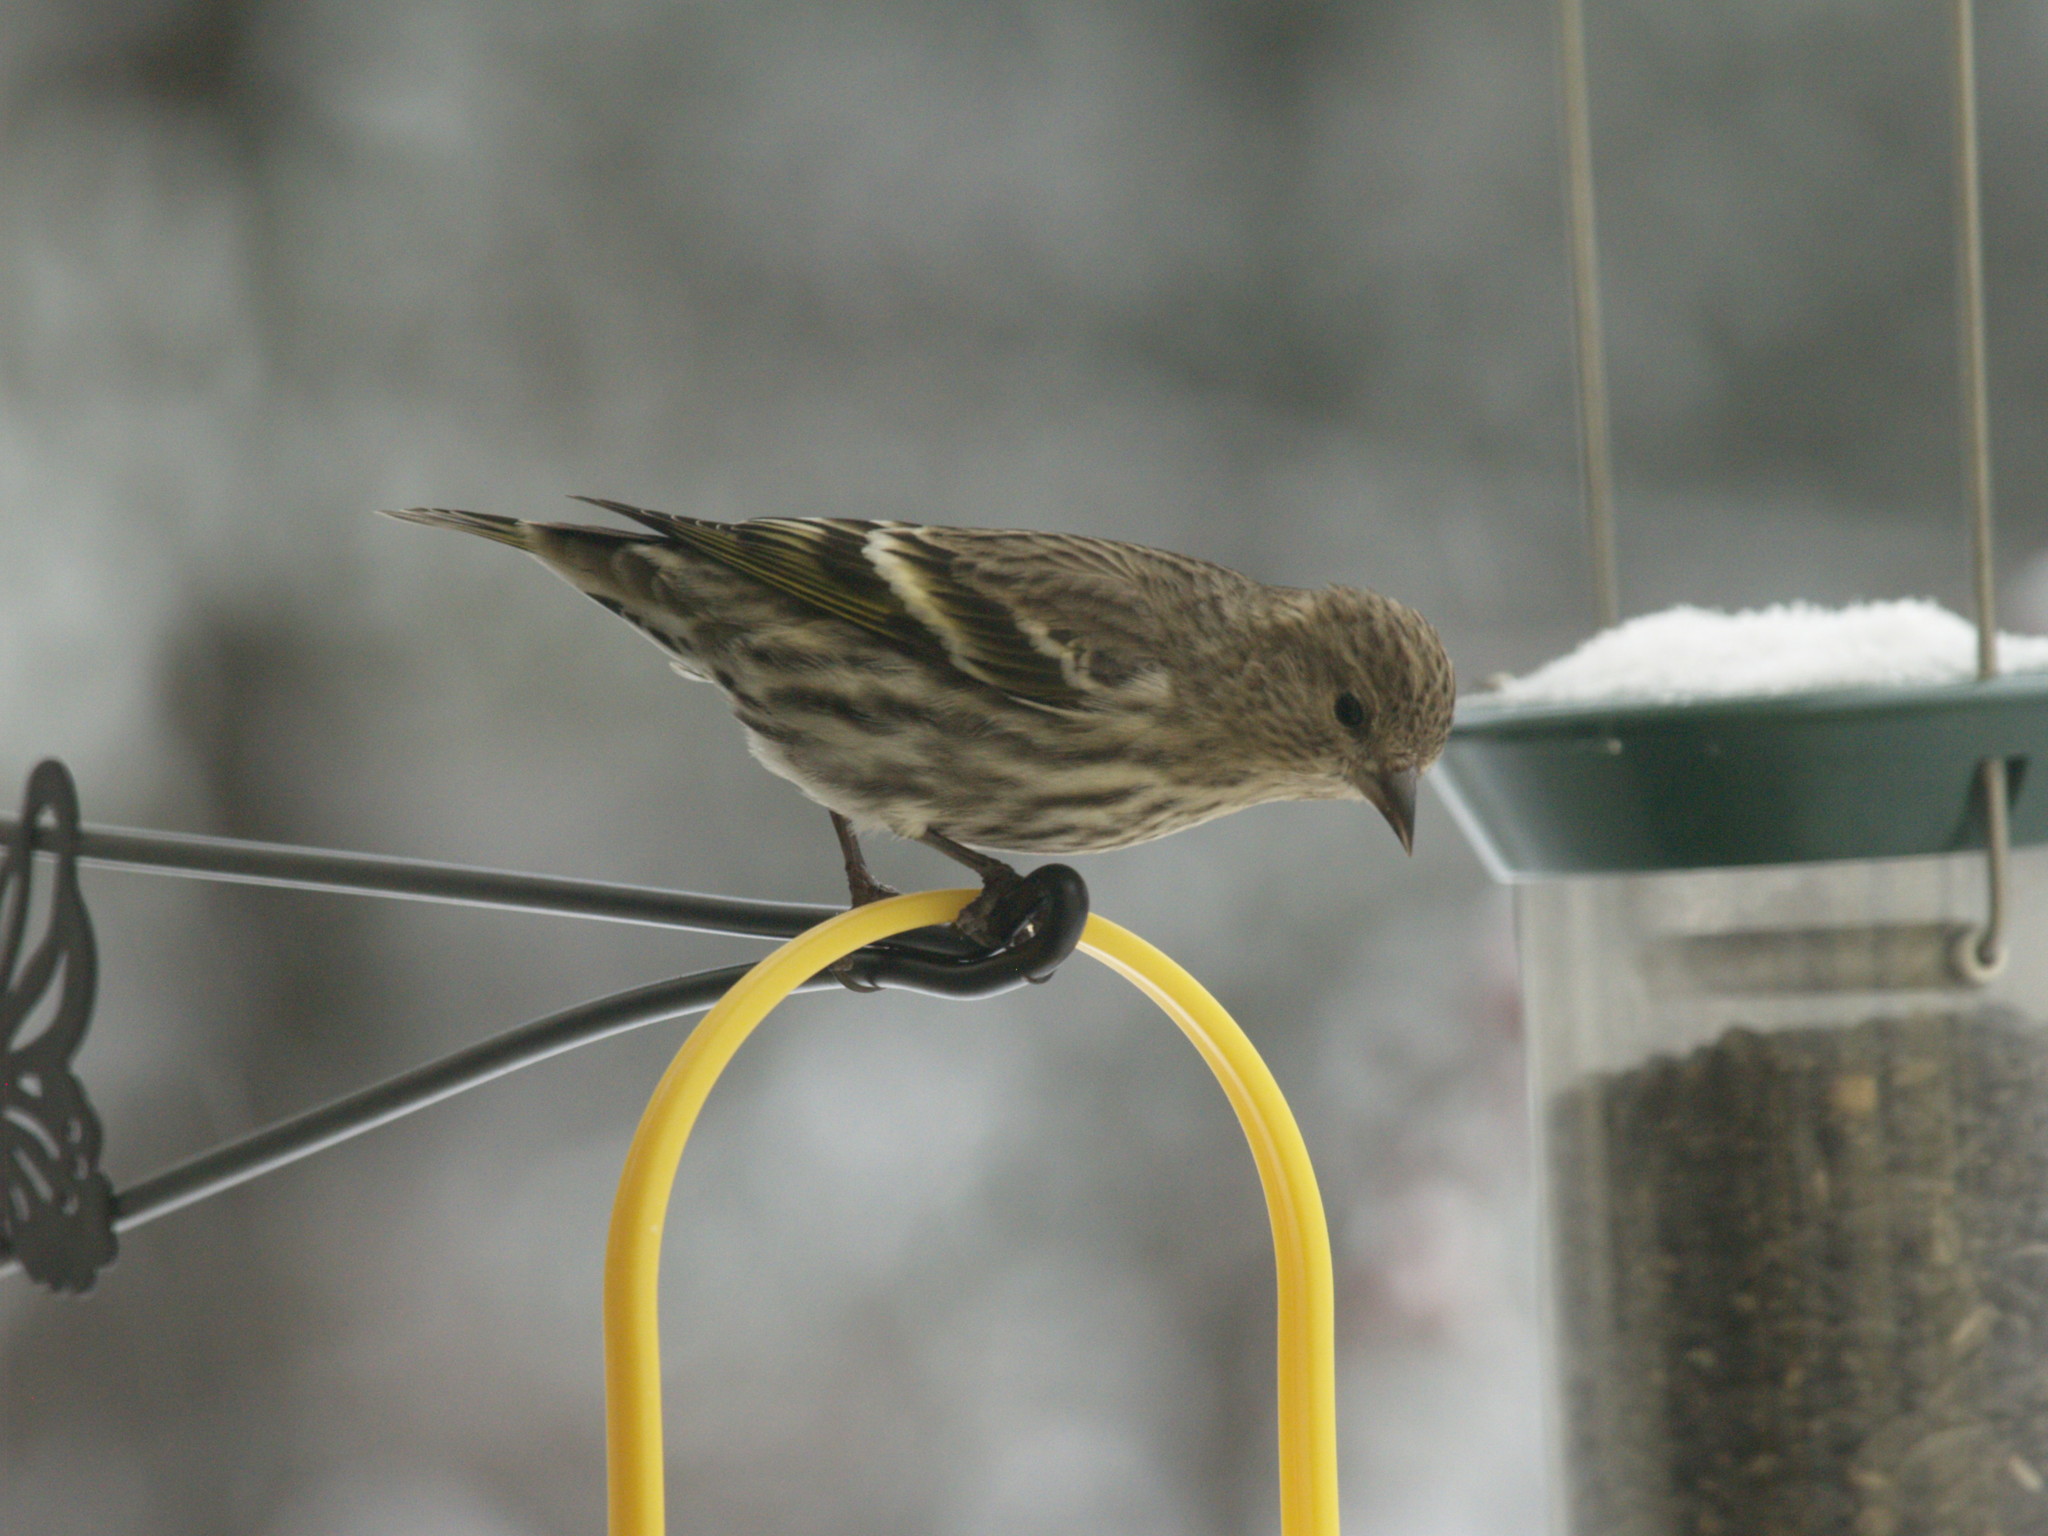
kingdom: Animalia
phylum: Chordata
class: Aves
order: Passeriformes
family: Fringillidae
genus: Spinus
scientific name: Spinus pinus
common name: Pine siskin
